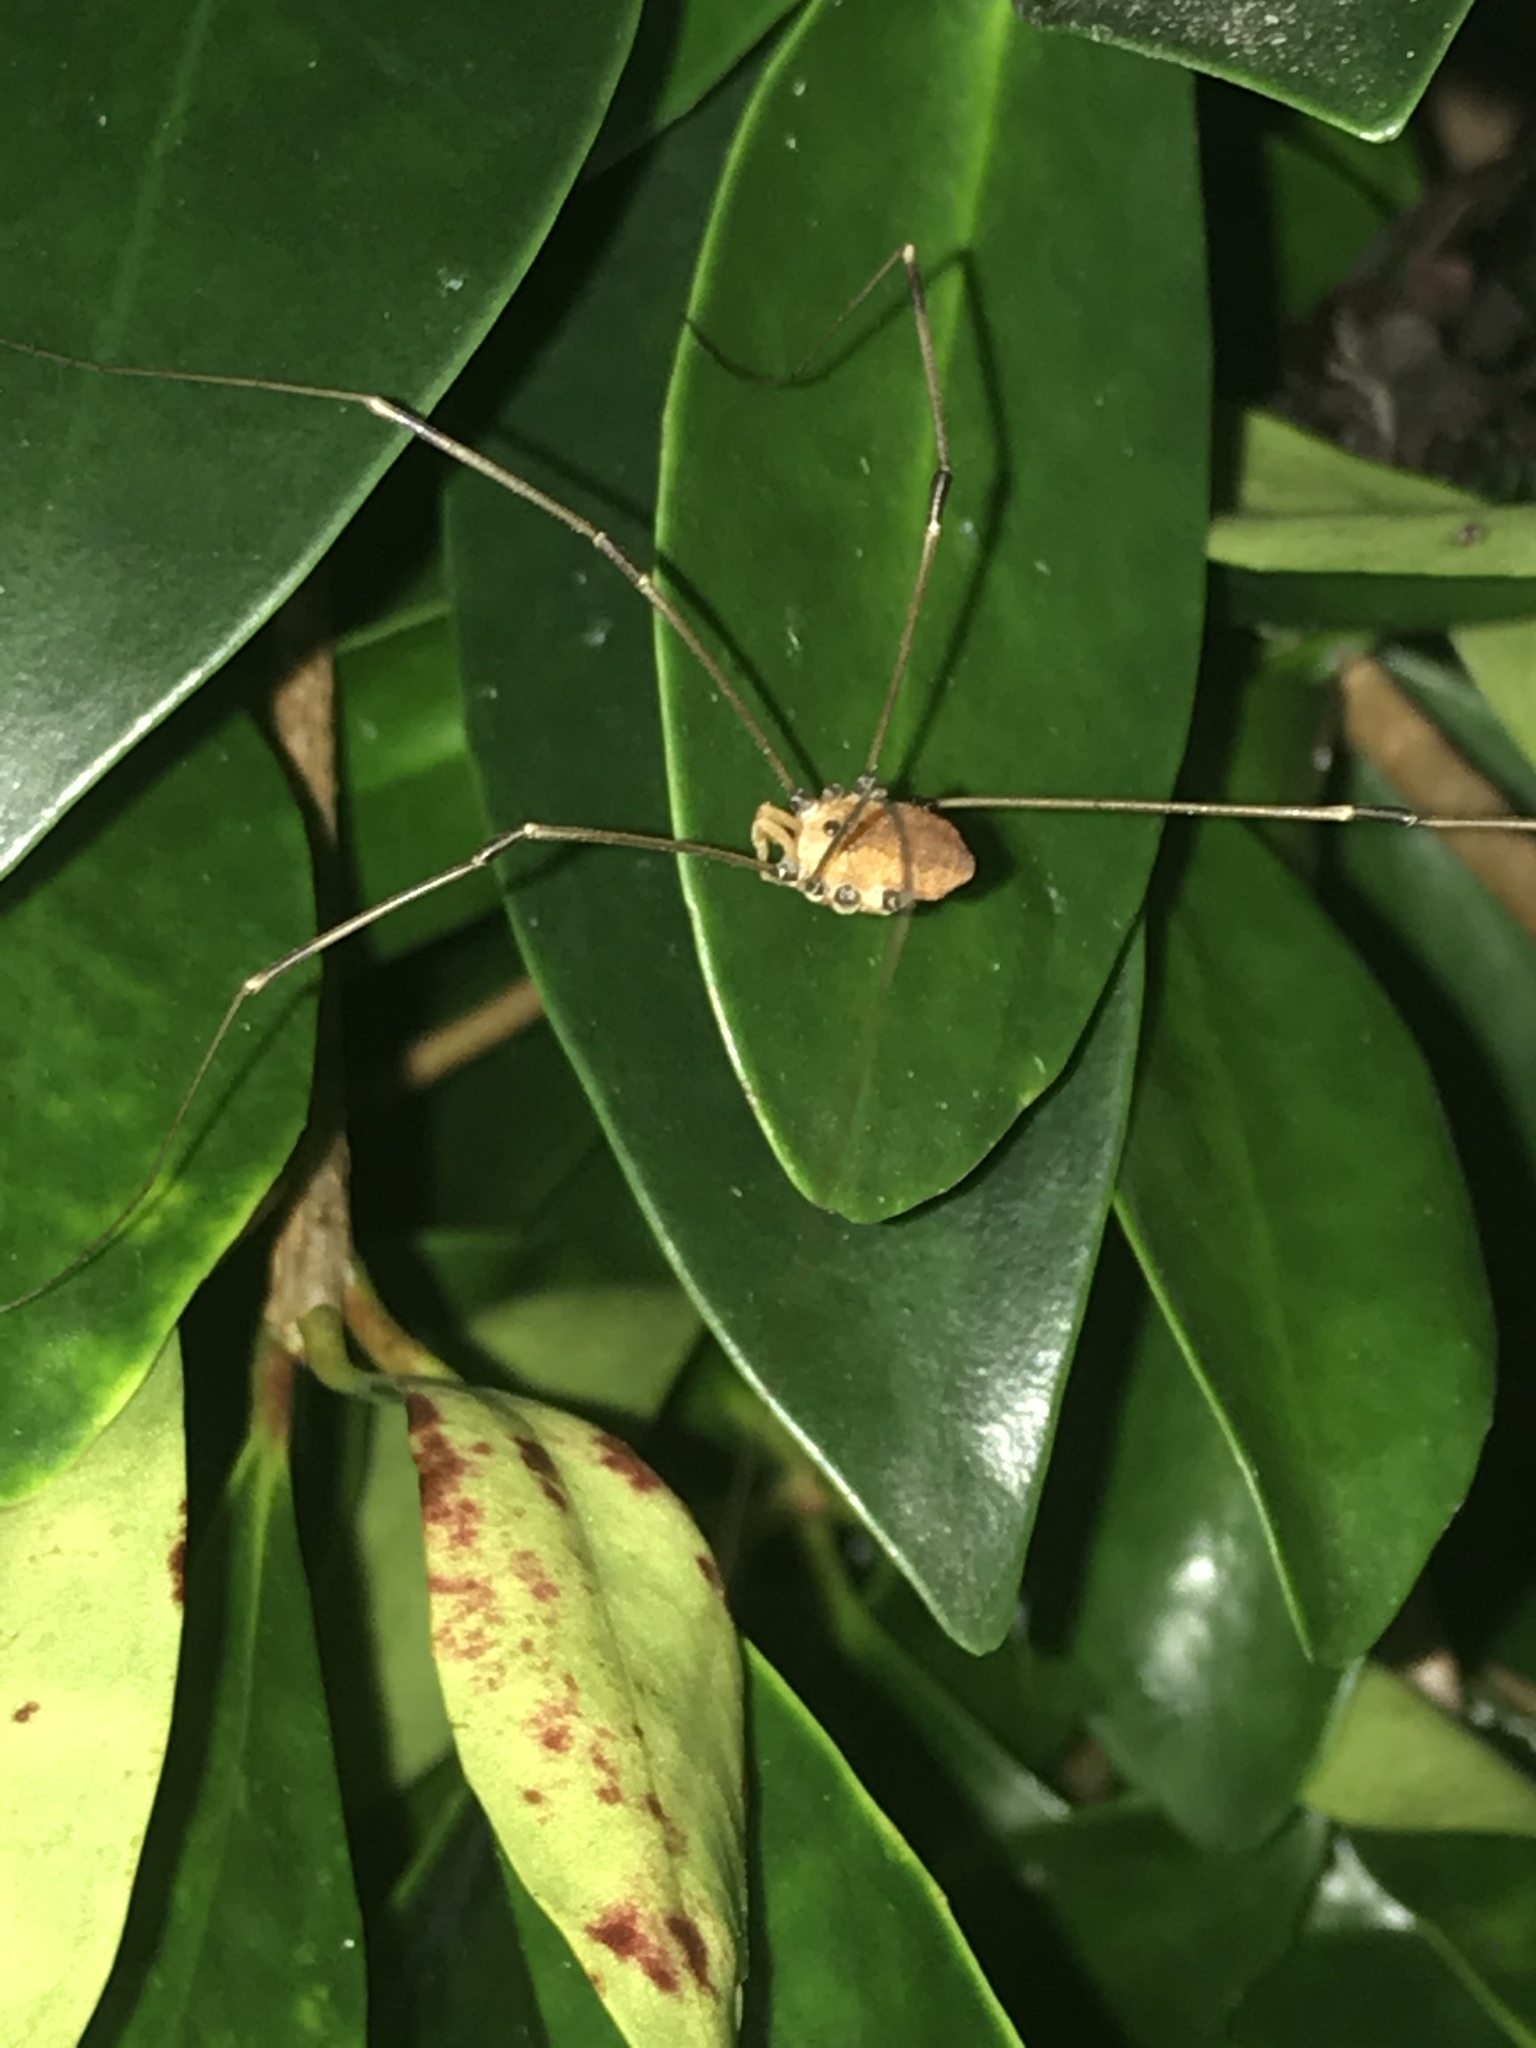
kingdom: Animalia
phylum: Arthropoda
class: Arachnida
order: Opiliones
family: Sclerosomatidae
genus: Leiobunum
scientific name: Leiobunum vittatum
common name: Eastern harvestman
